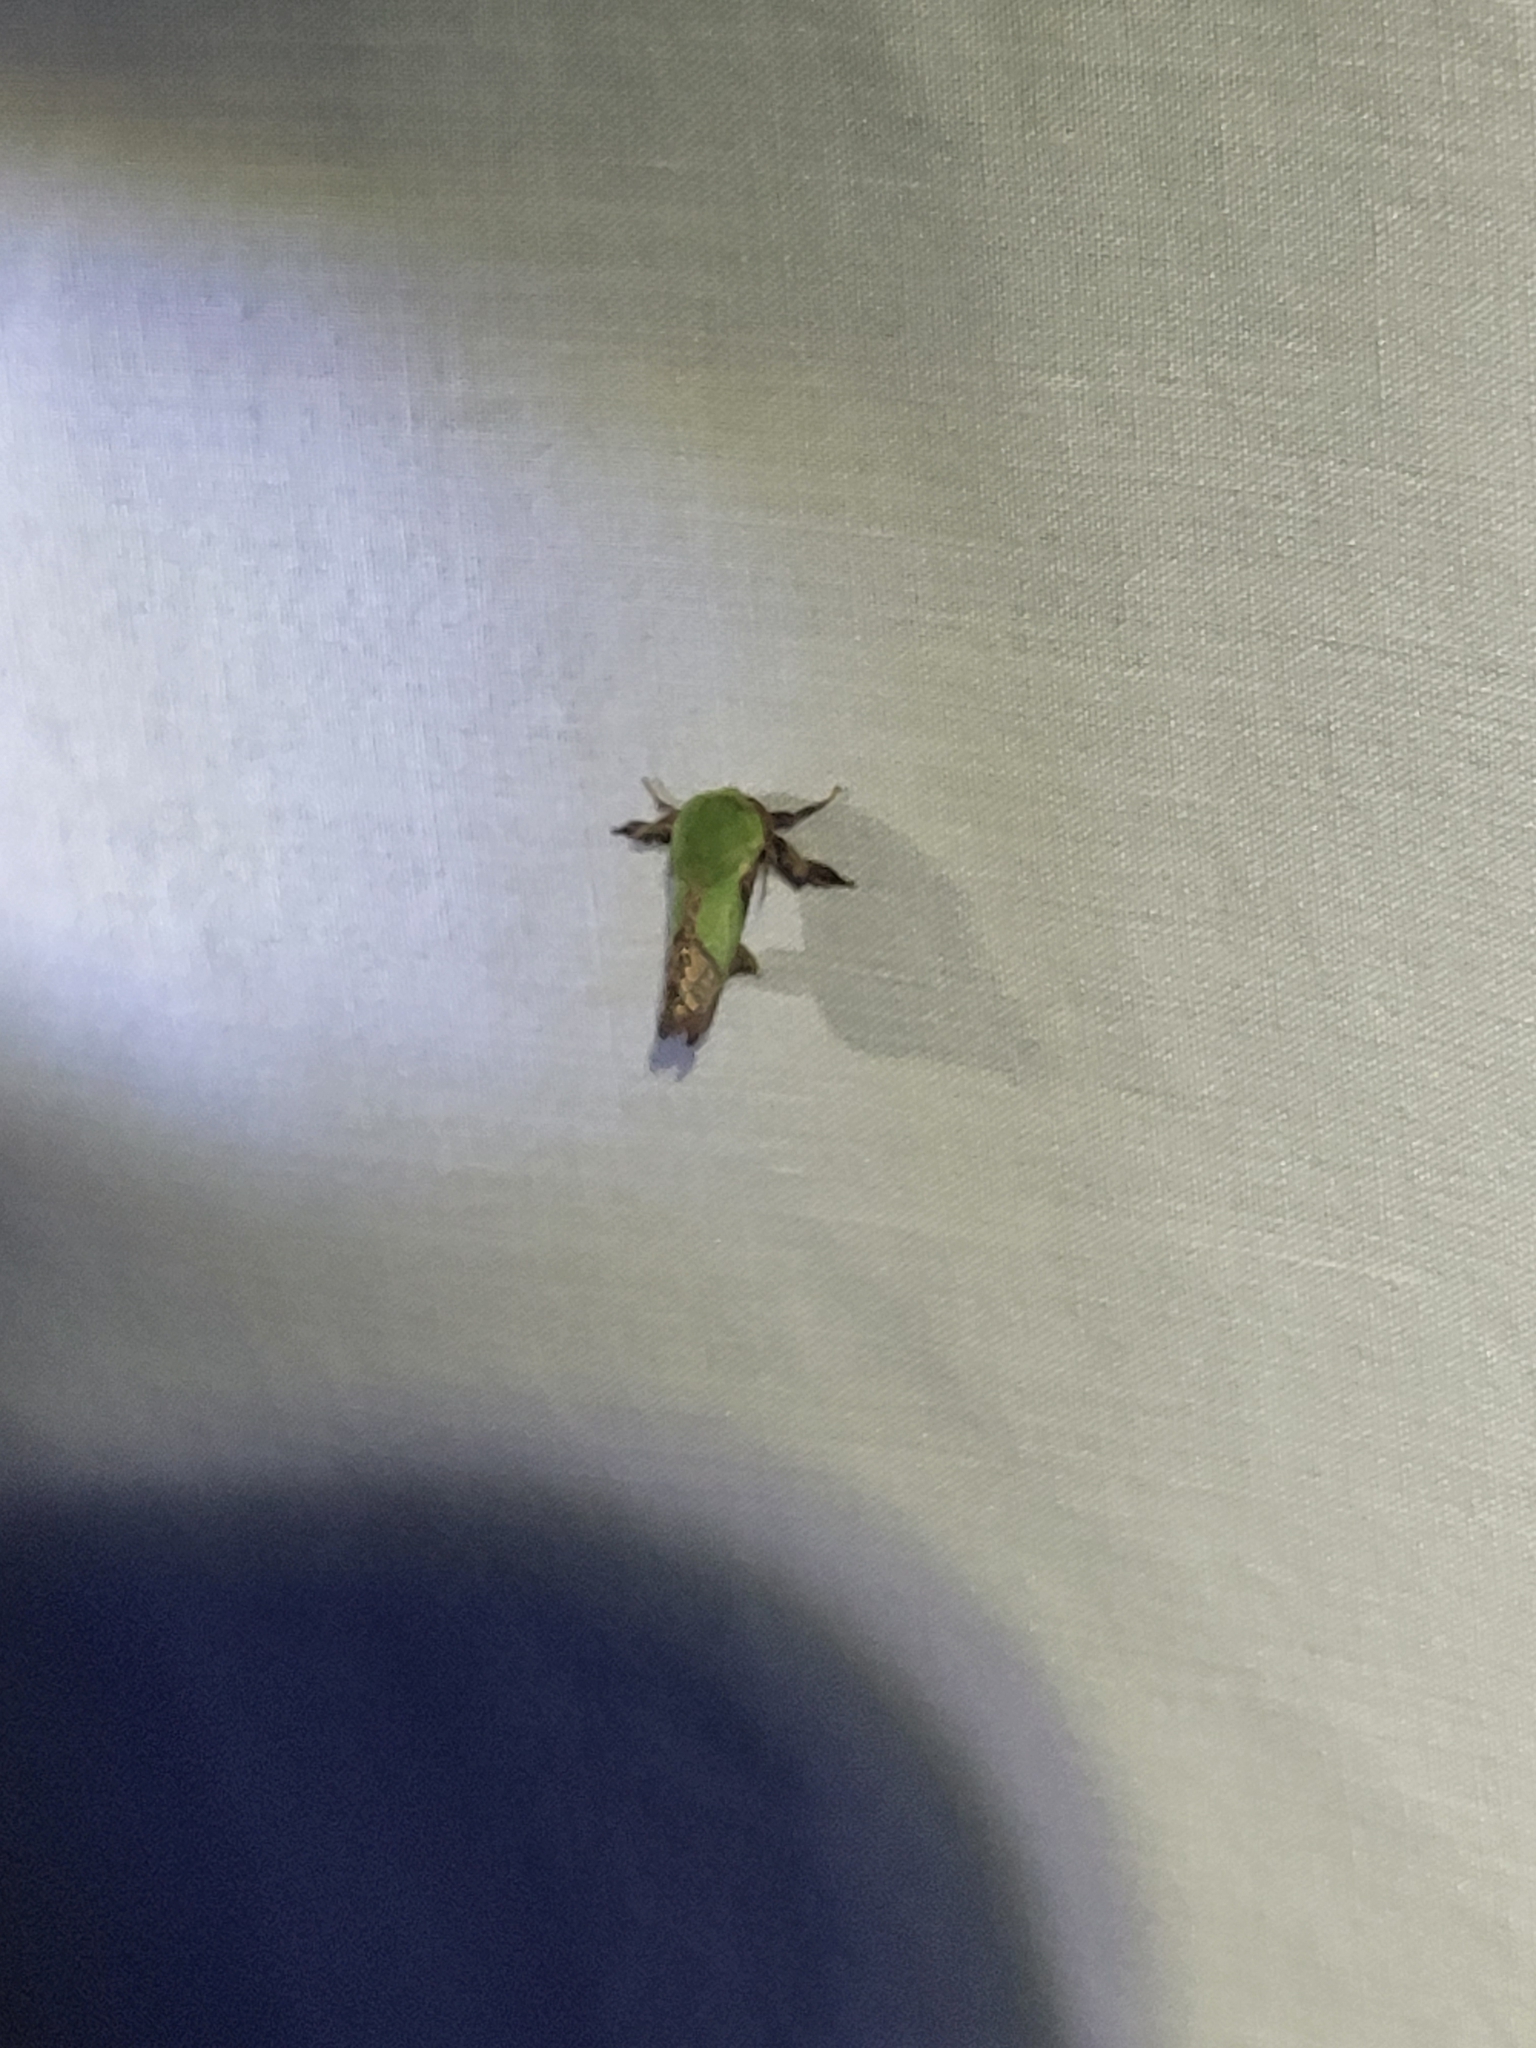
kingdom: Animalia
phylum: Arthropoda
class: Insecta
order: Lepidoptera
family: Limacodidae
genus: Parasa
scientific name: Parasa chloris
